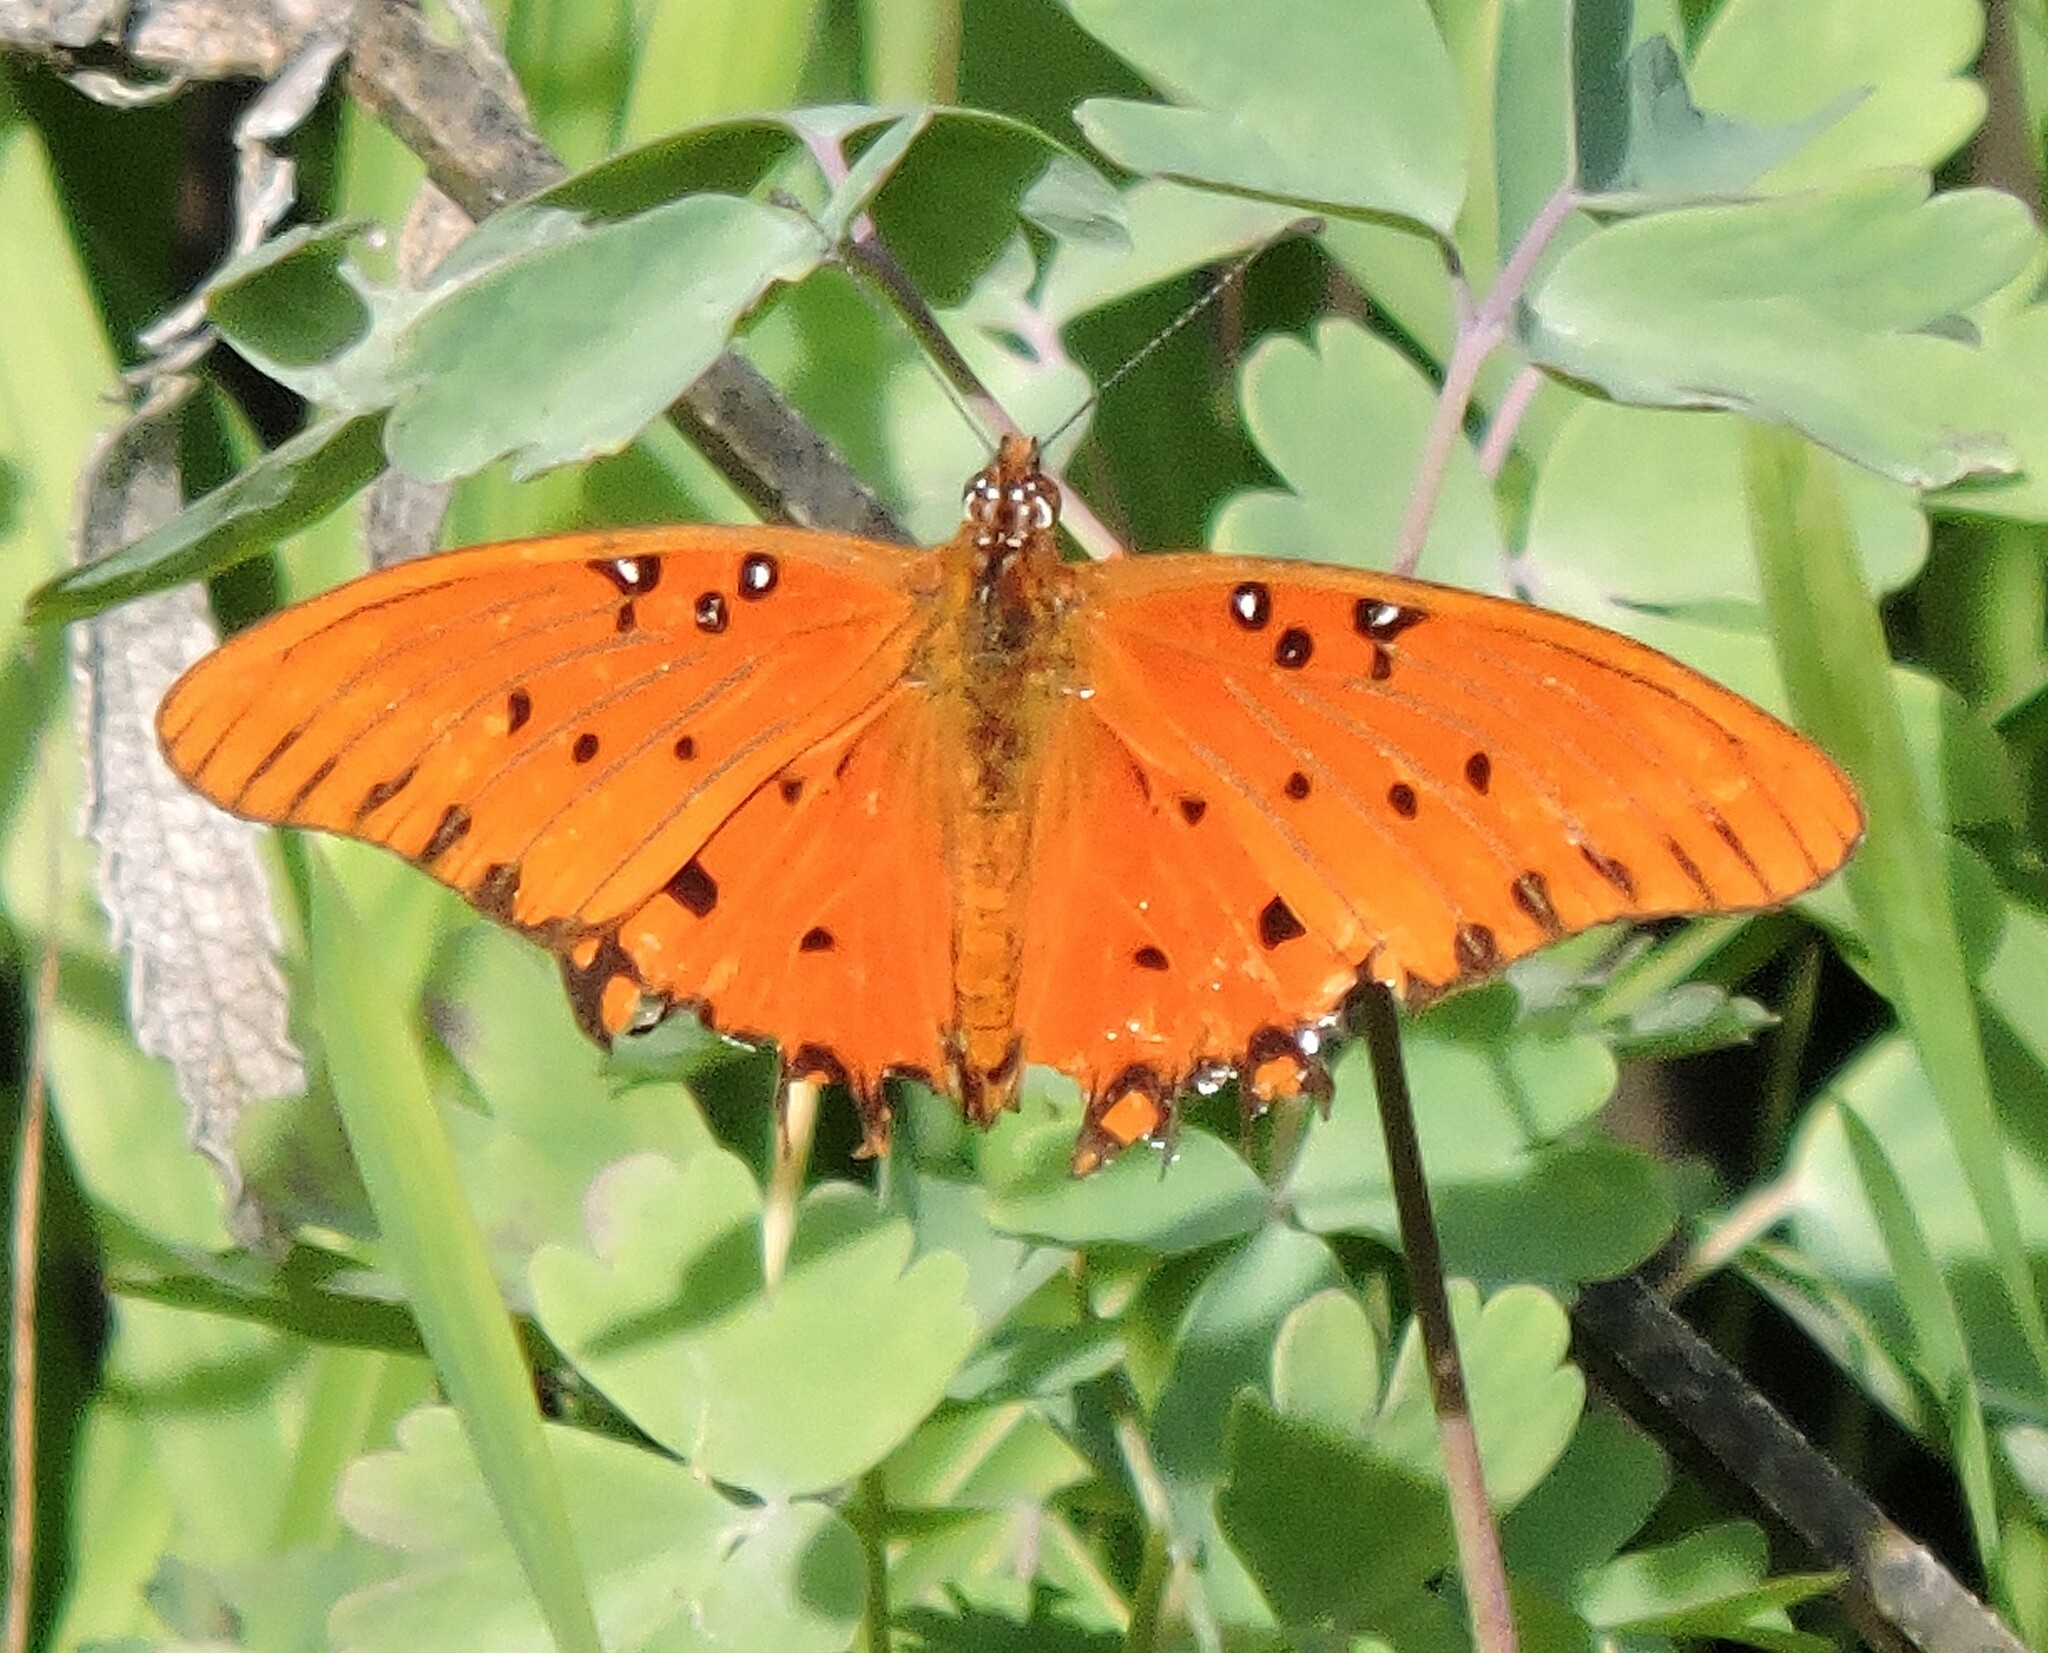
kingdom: Animalia
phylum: Arthropoda
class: Insecta
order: Lepidoptera
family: Nymphalidae
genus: Dione
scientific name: Dione vanillae
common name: Gulf fritillary
